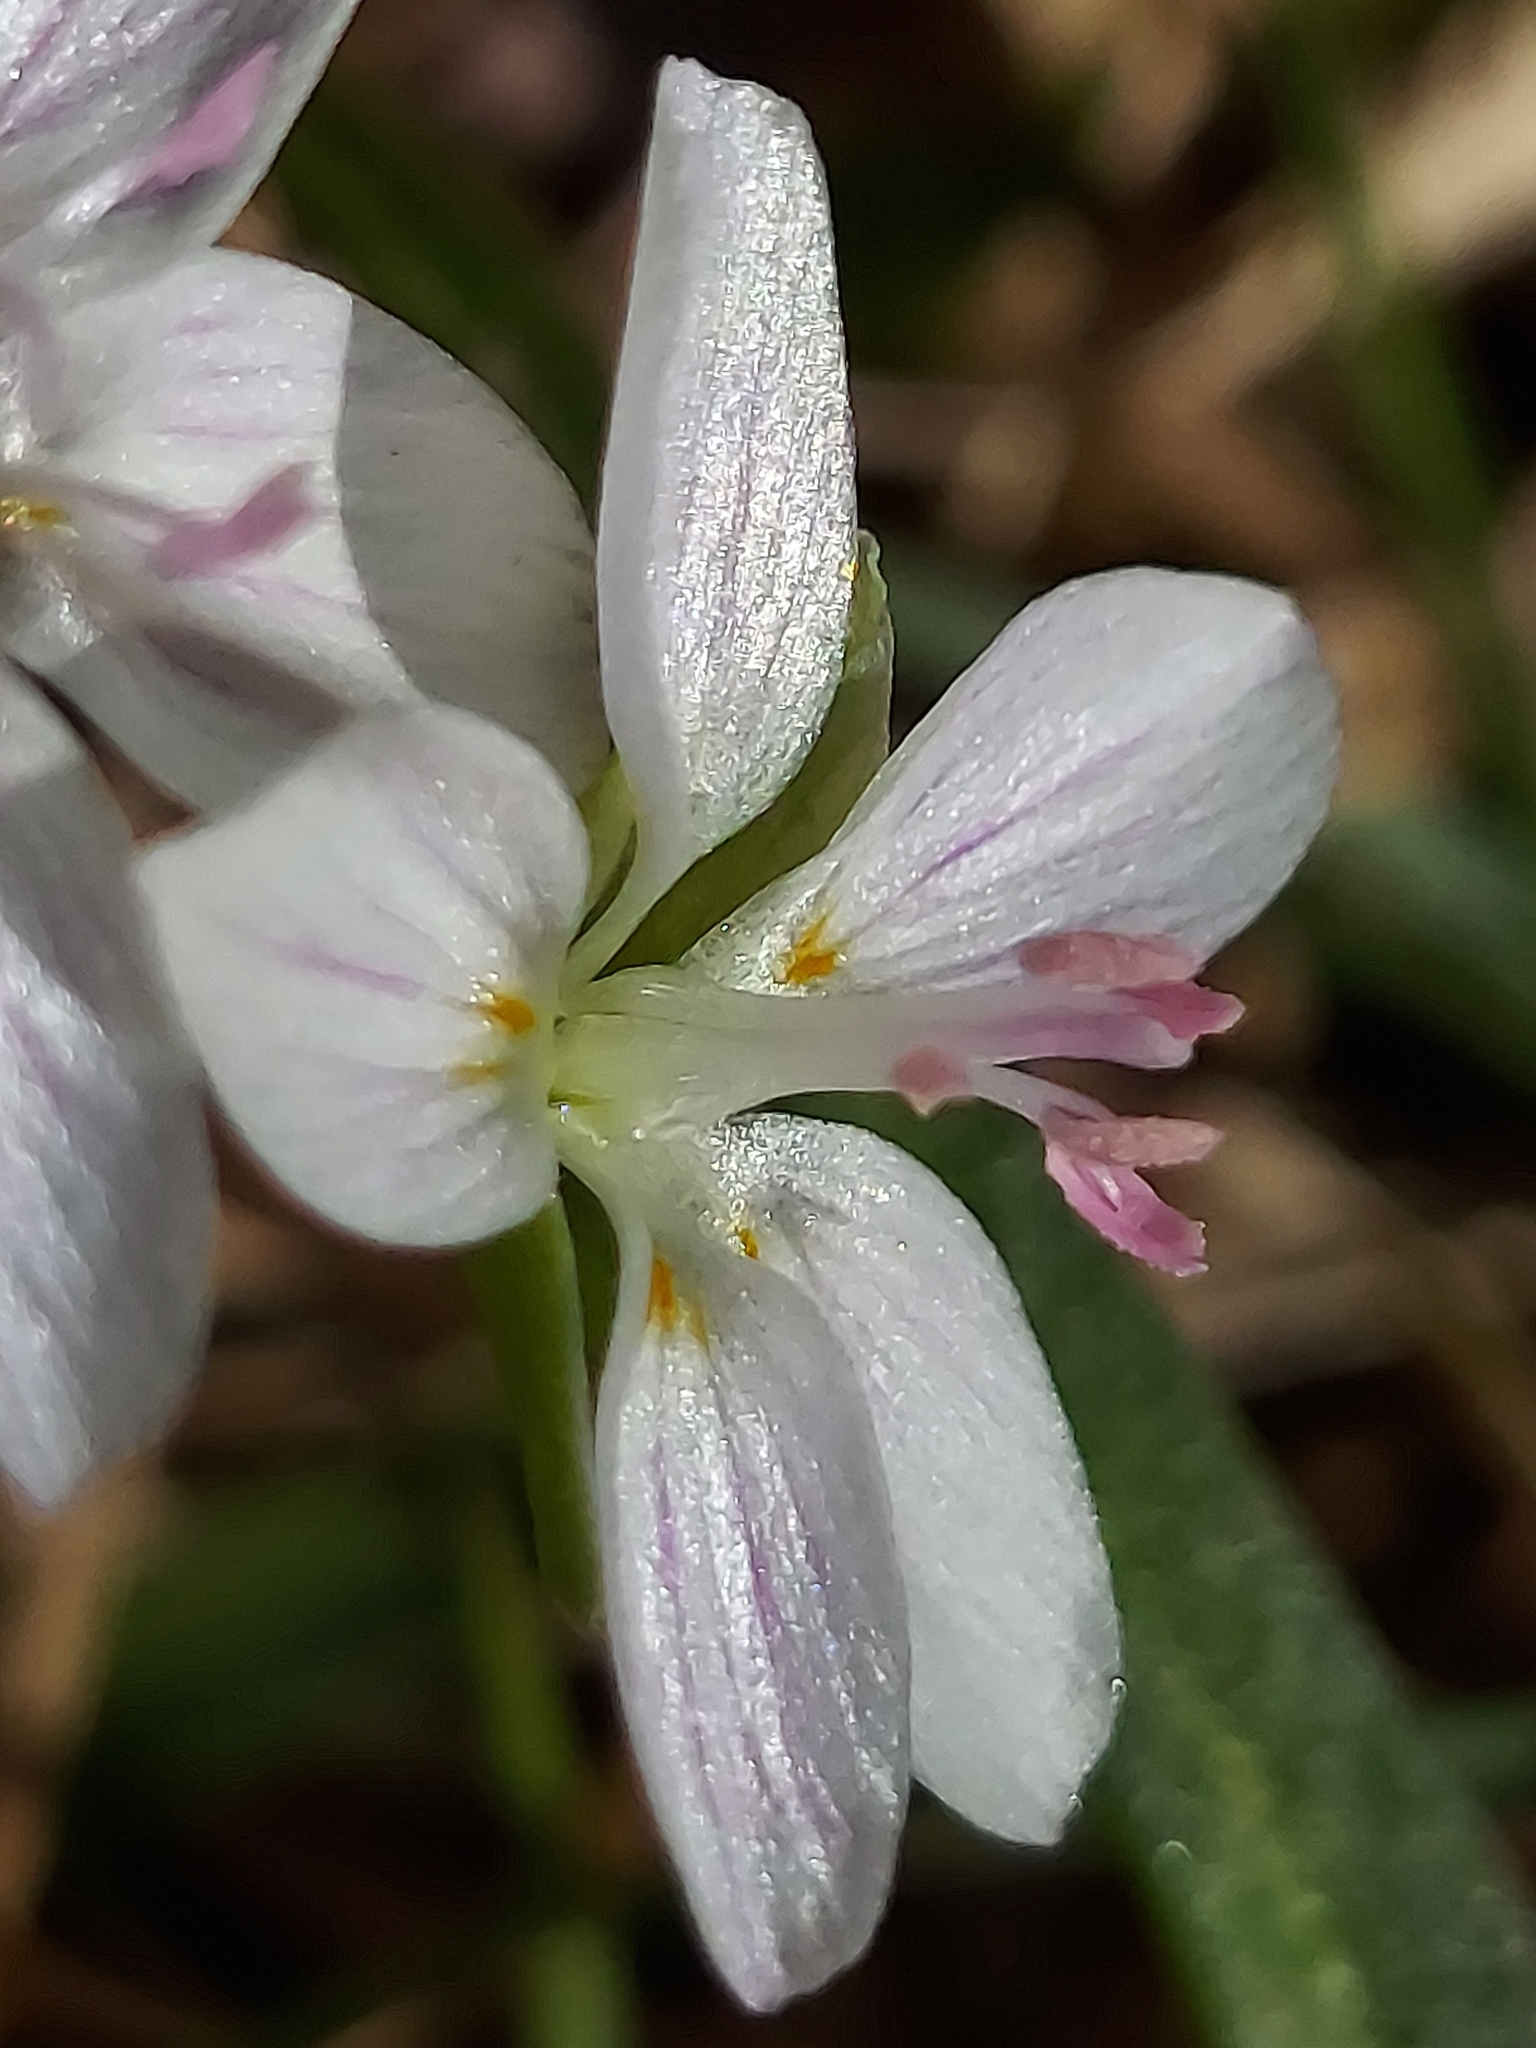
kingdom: Plantae
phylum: Tracheophyta
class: Magnoliopsida
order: Caryophyllales
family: Montiaceae
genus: Claytonia
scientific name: Claytonia virginica
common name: Virginia springbeauty
